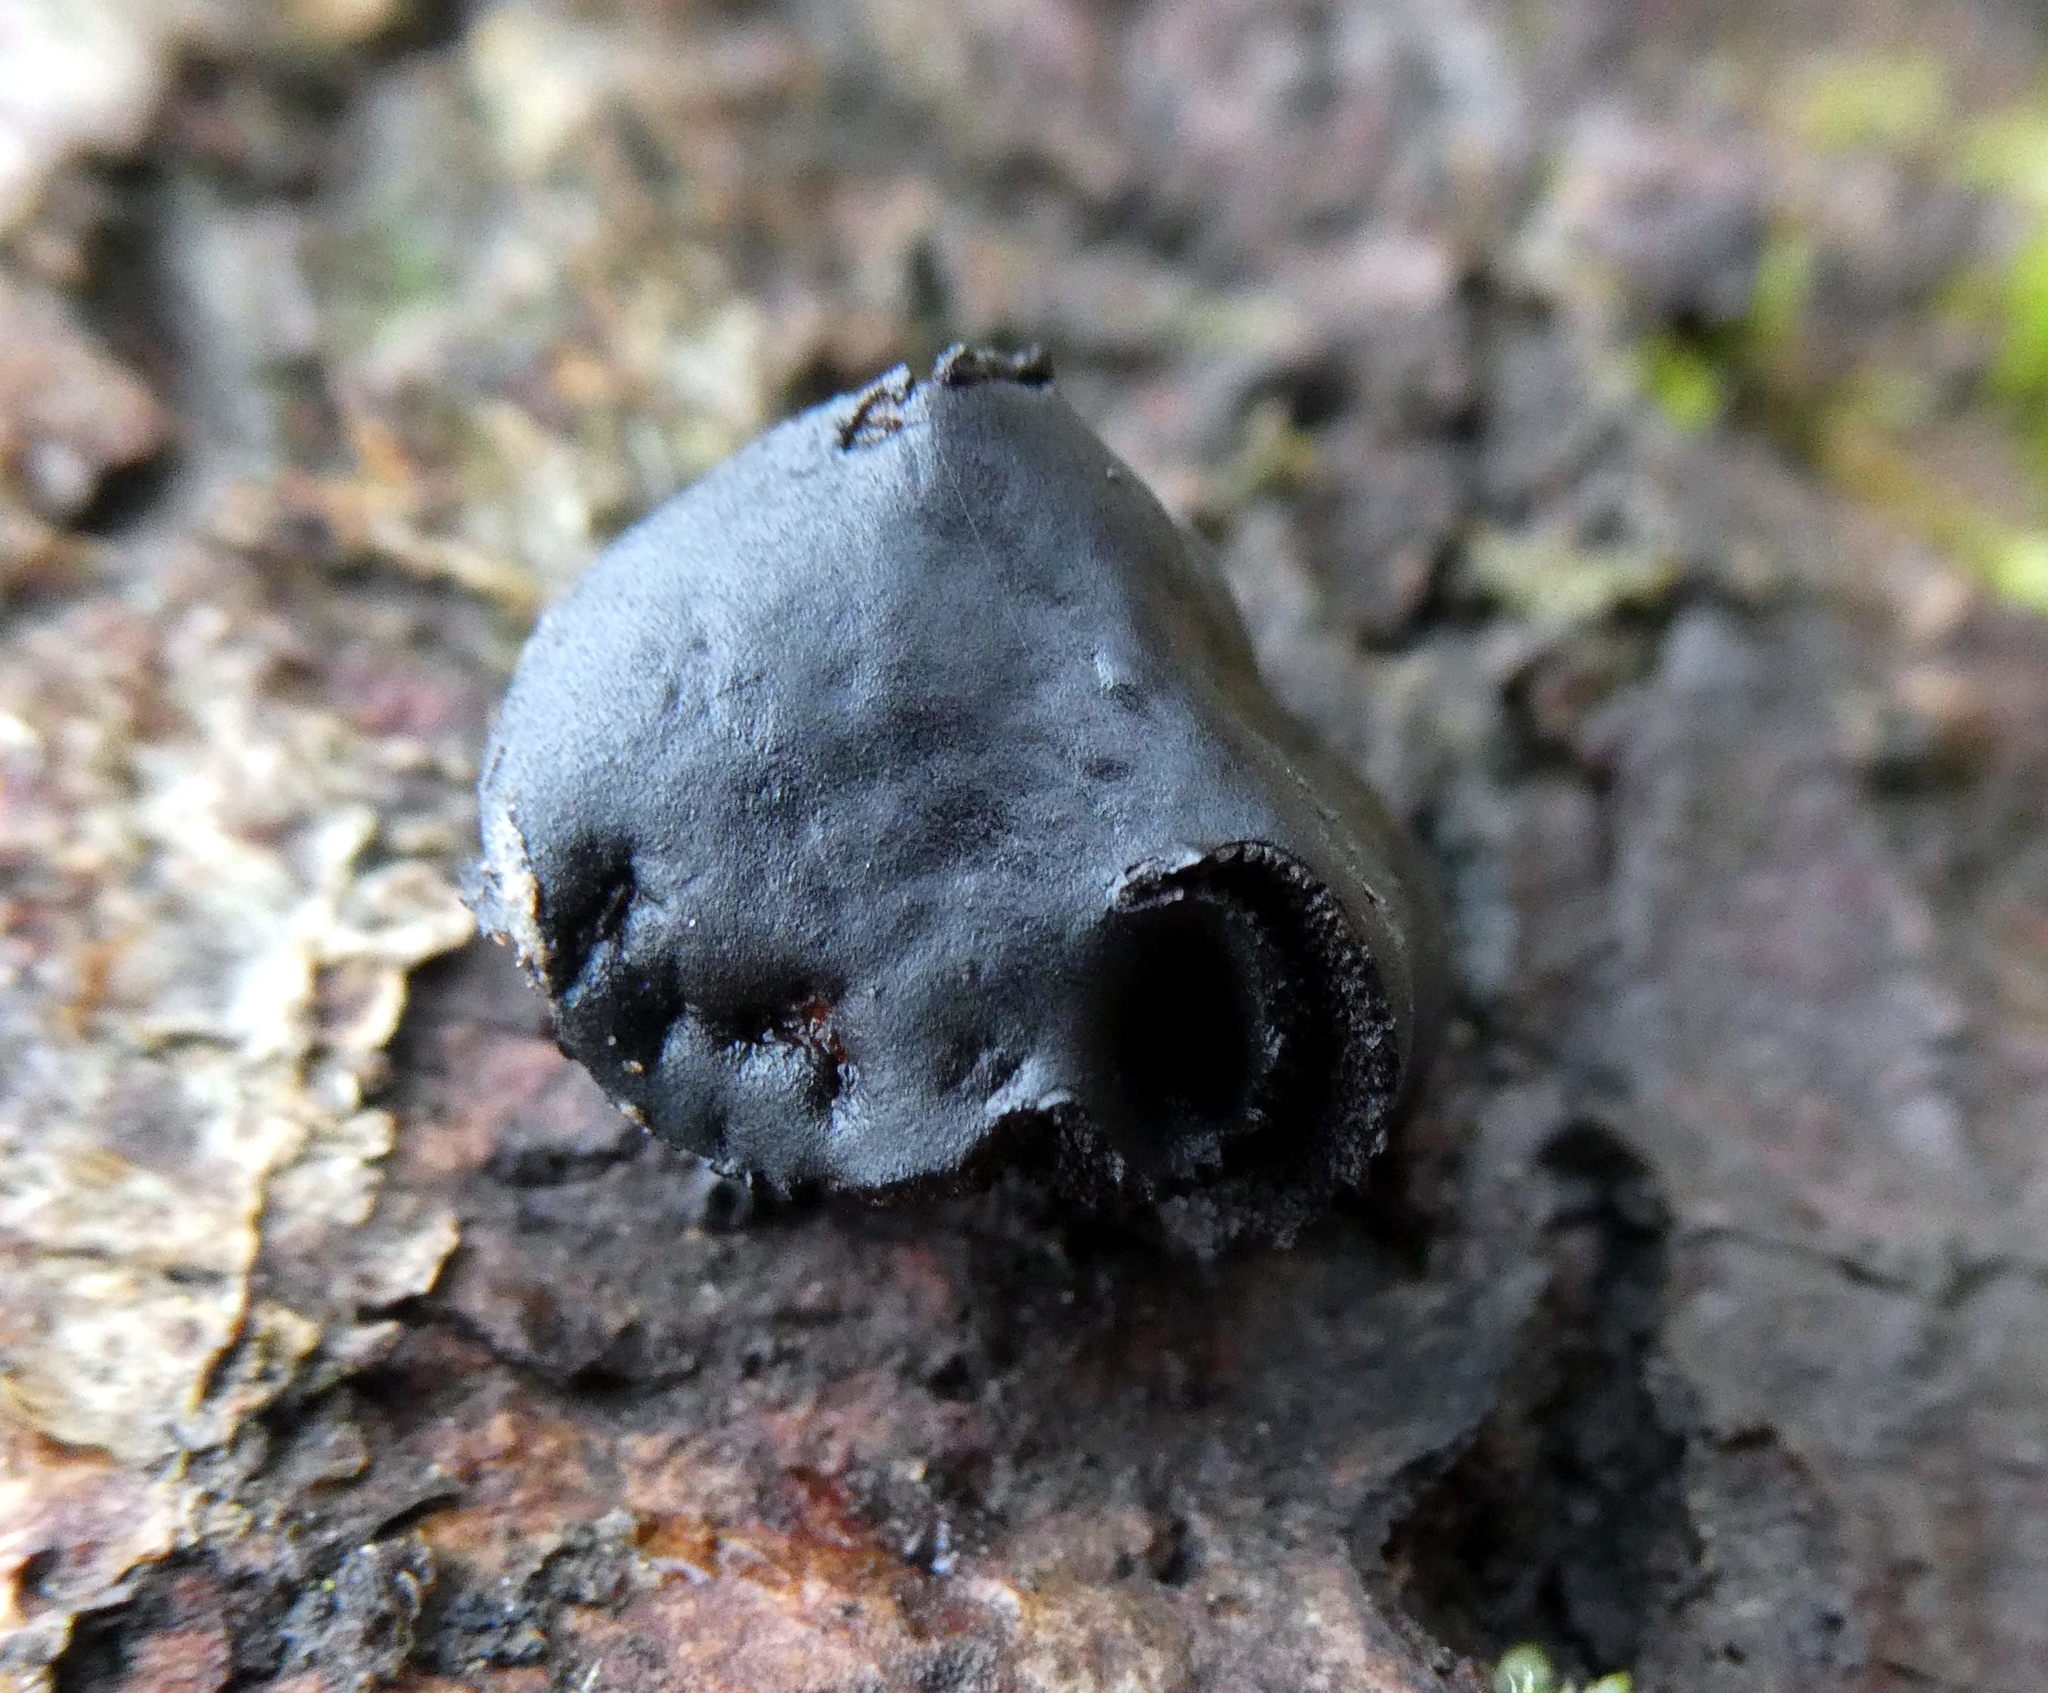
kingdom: Fungi
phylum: Ascomycota
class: Leotiomycetes
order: Phacidiales
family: Phacidiaceae
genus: Bulgaria
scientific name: Bulgaria inquinans
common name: Black bulgar
